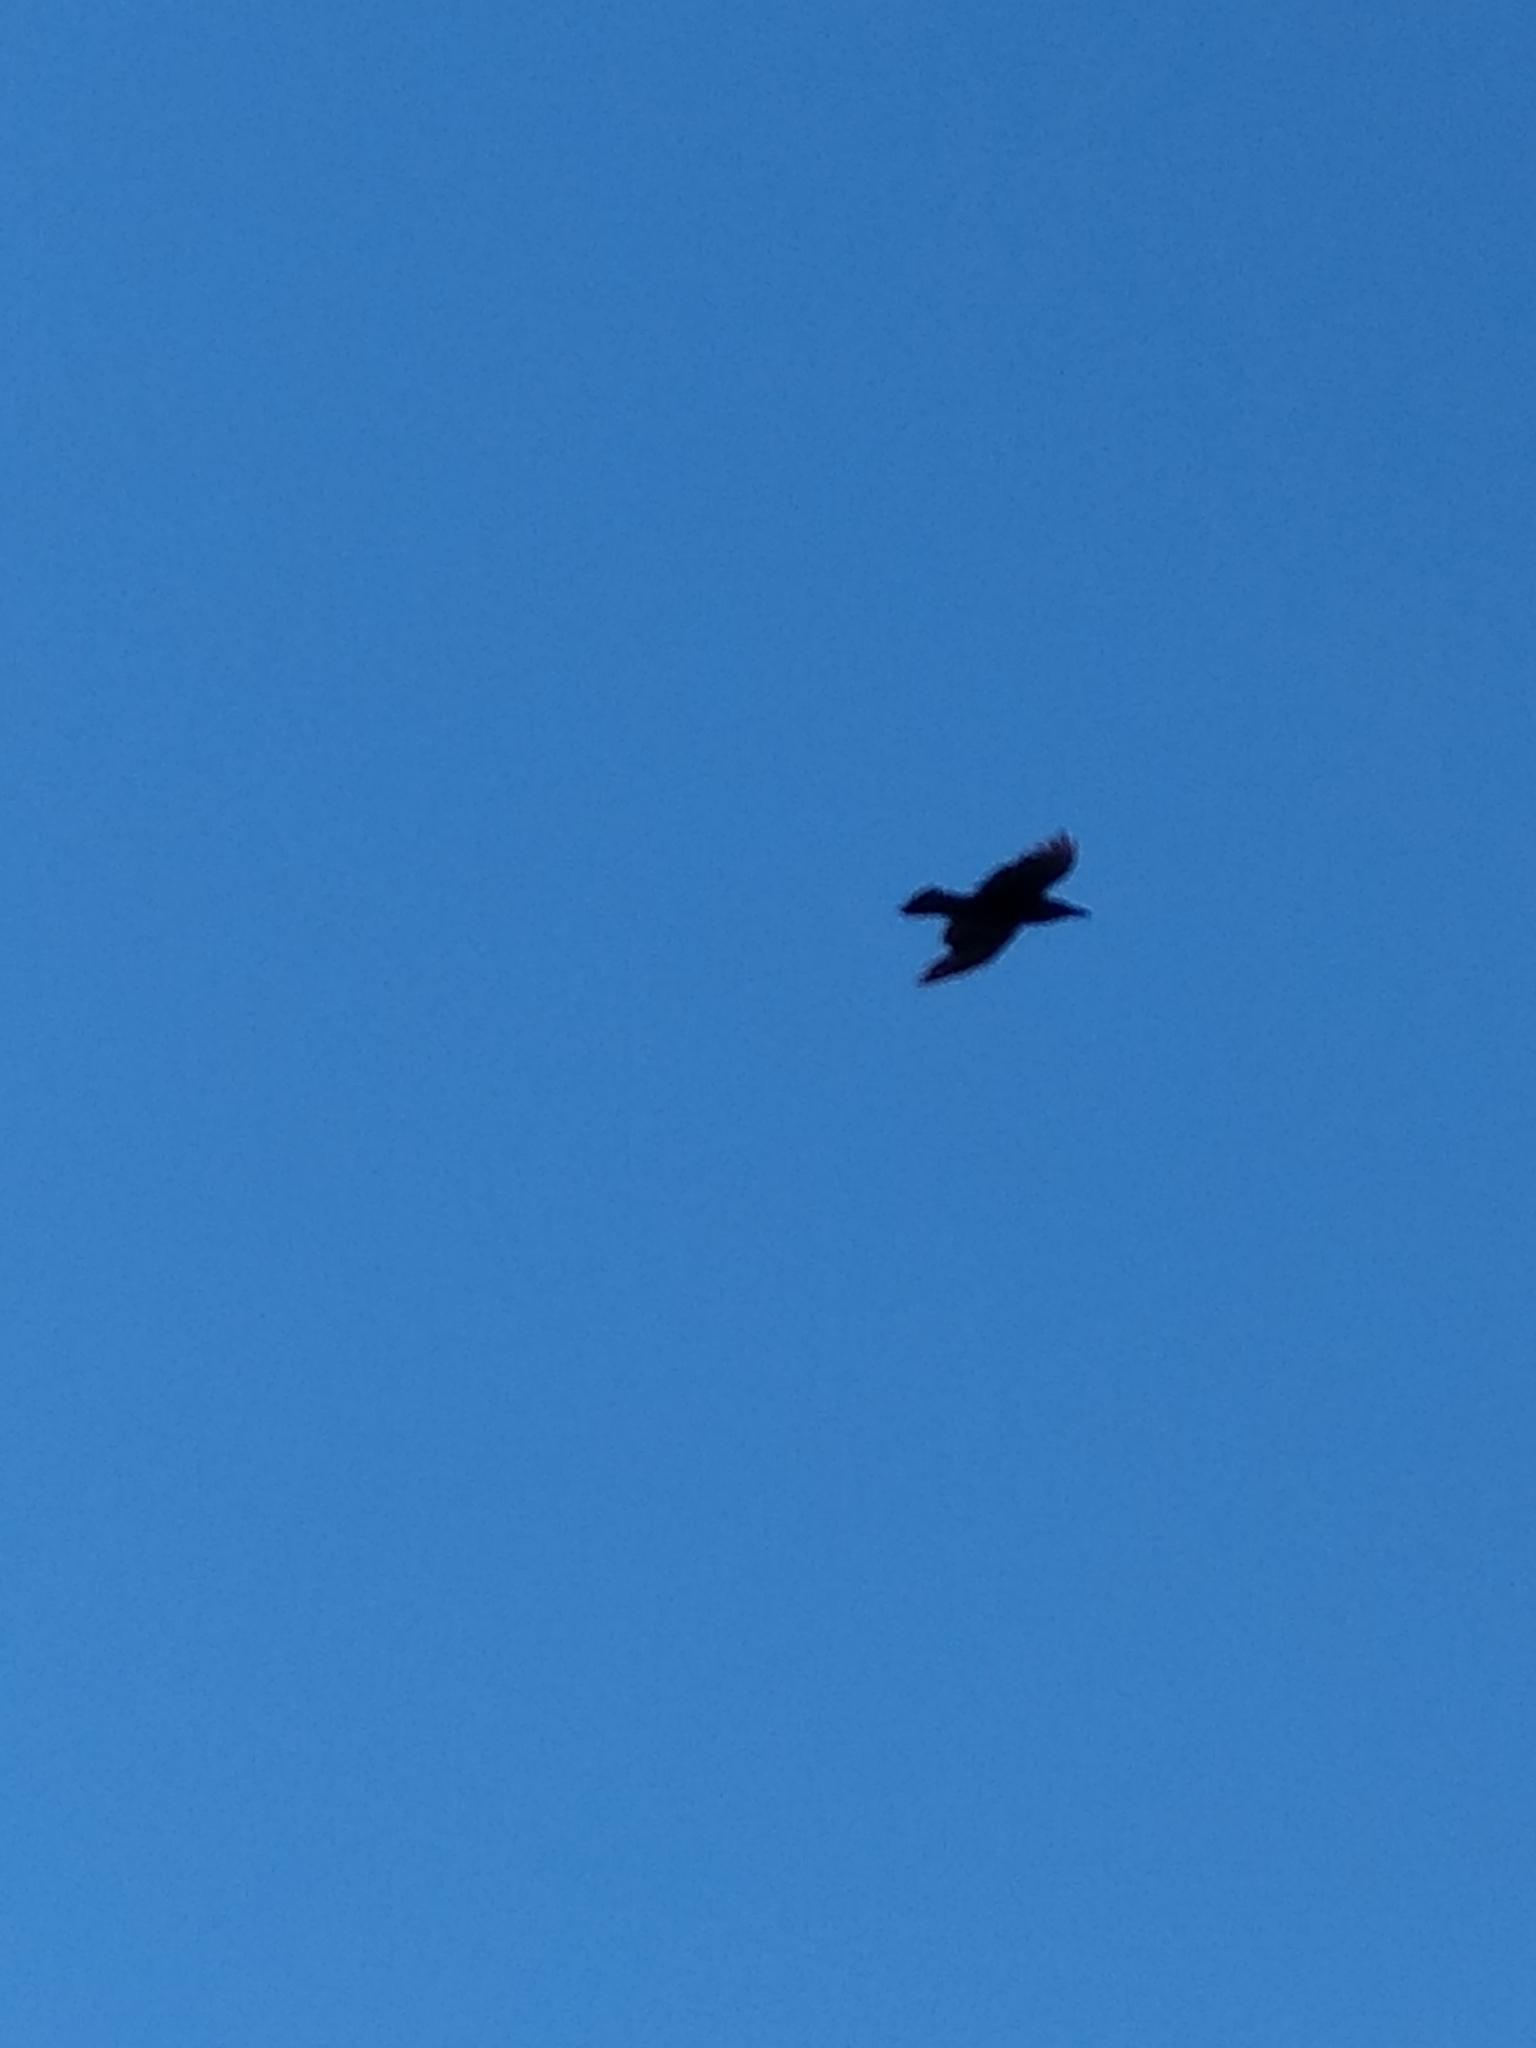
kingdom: Animalia
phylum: Chordata
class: Aves
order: Passeriformes
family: Corvidae
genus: Corvus
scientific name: Corvus corax
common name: Common raven
